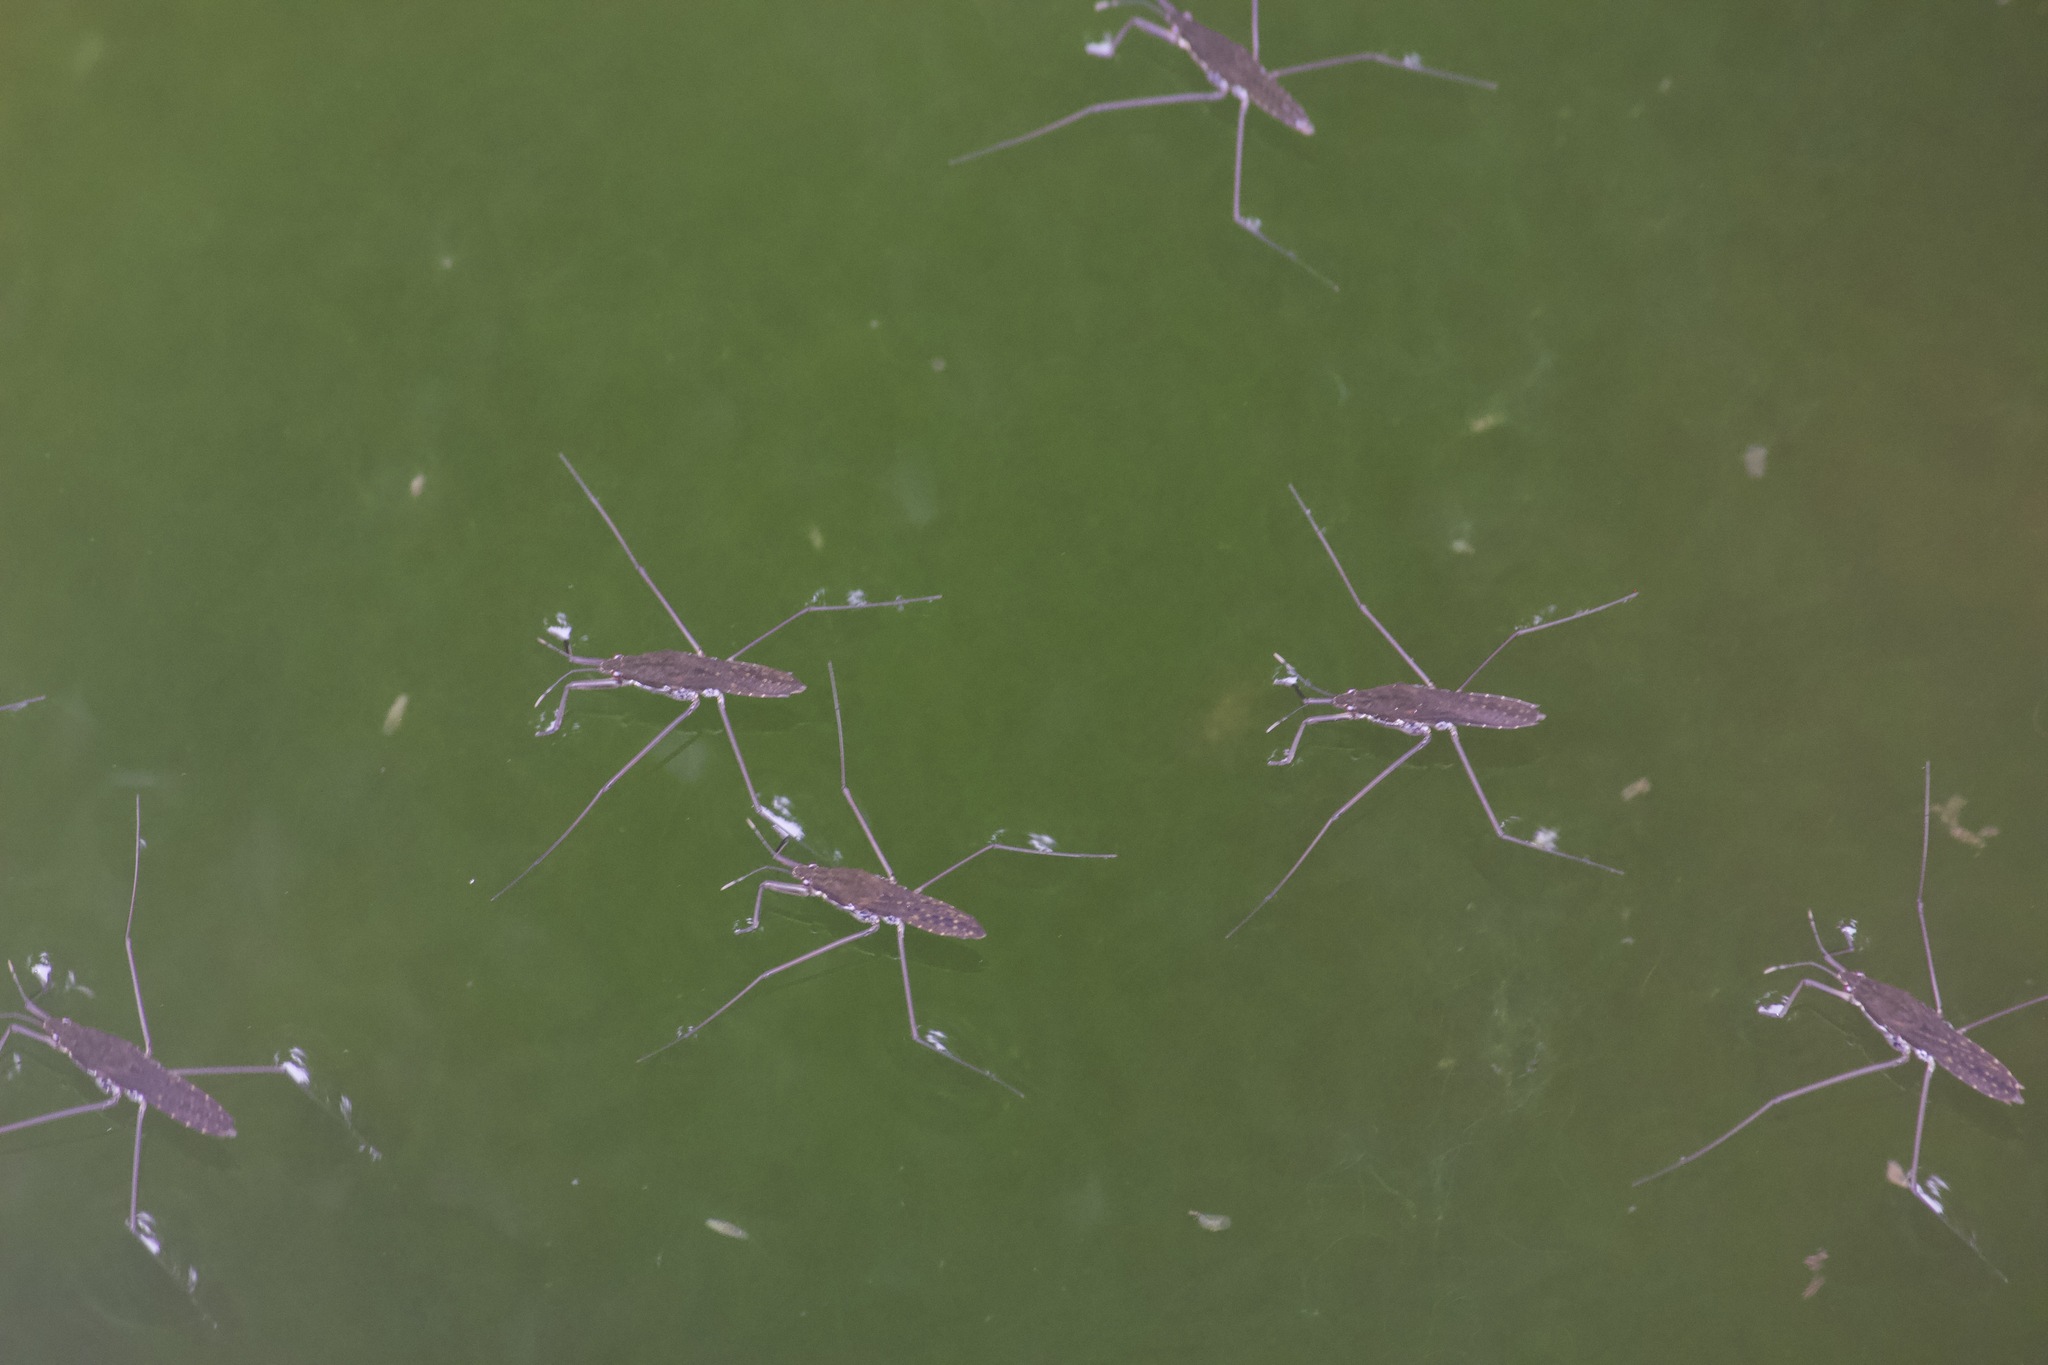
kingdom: Animalia
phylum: Arthropoda
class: Insecta
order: Hemiptera
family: Gerridae
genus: Aquarius
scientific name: Aquarius remigis
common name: Common water strider
